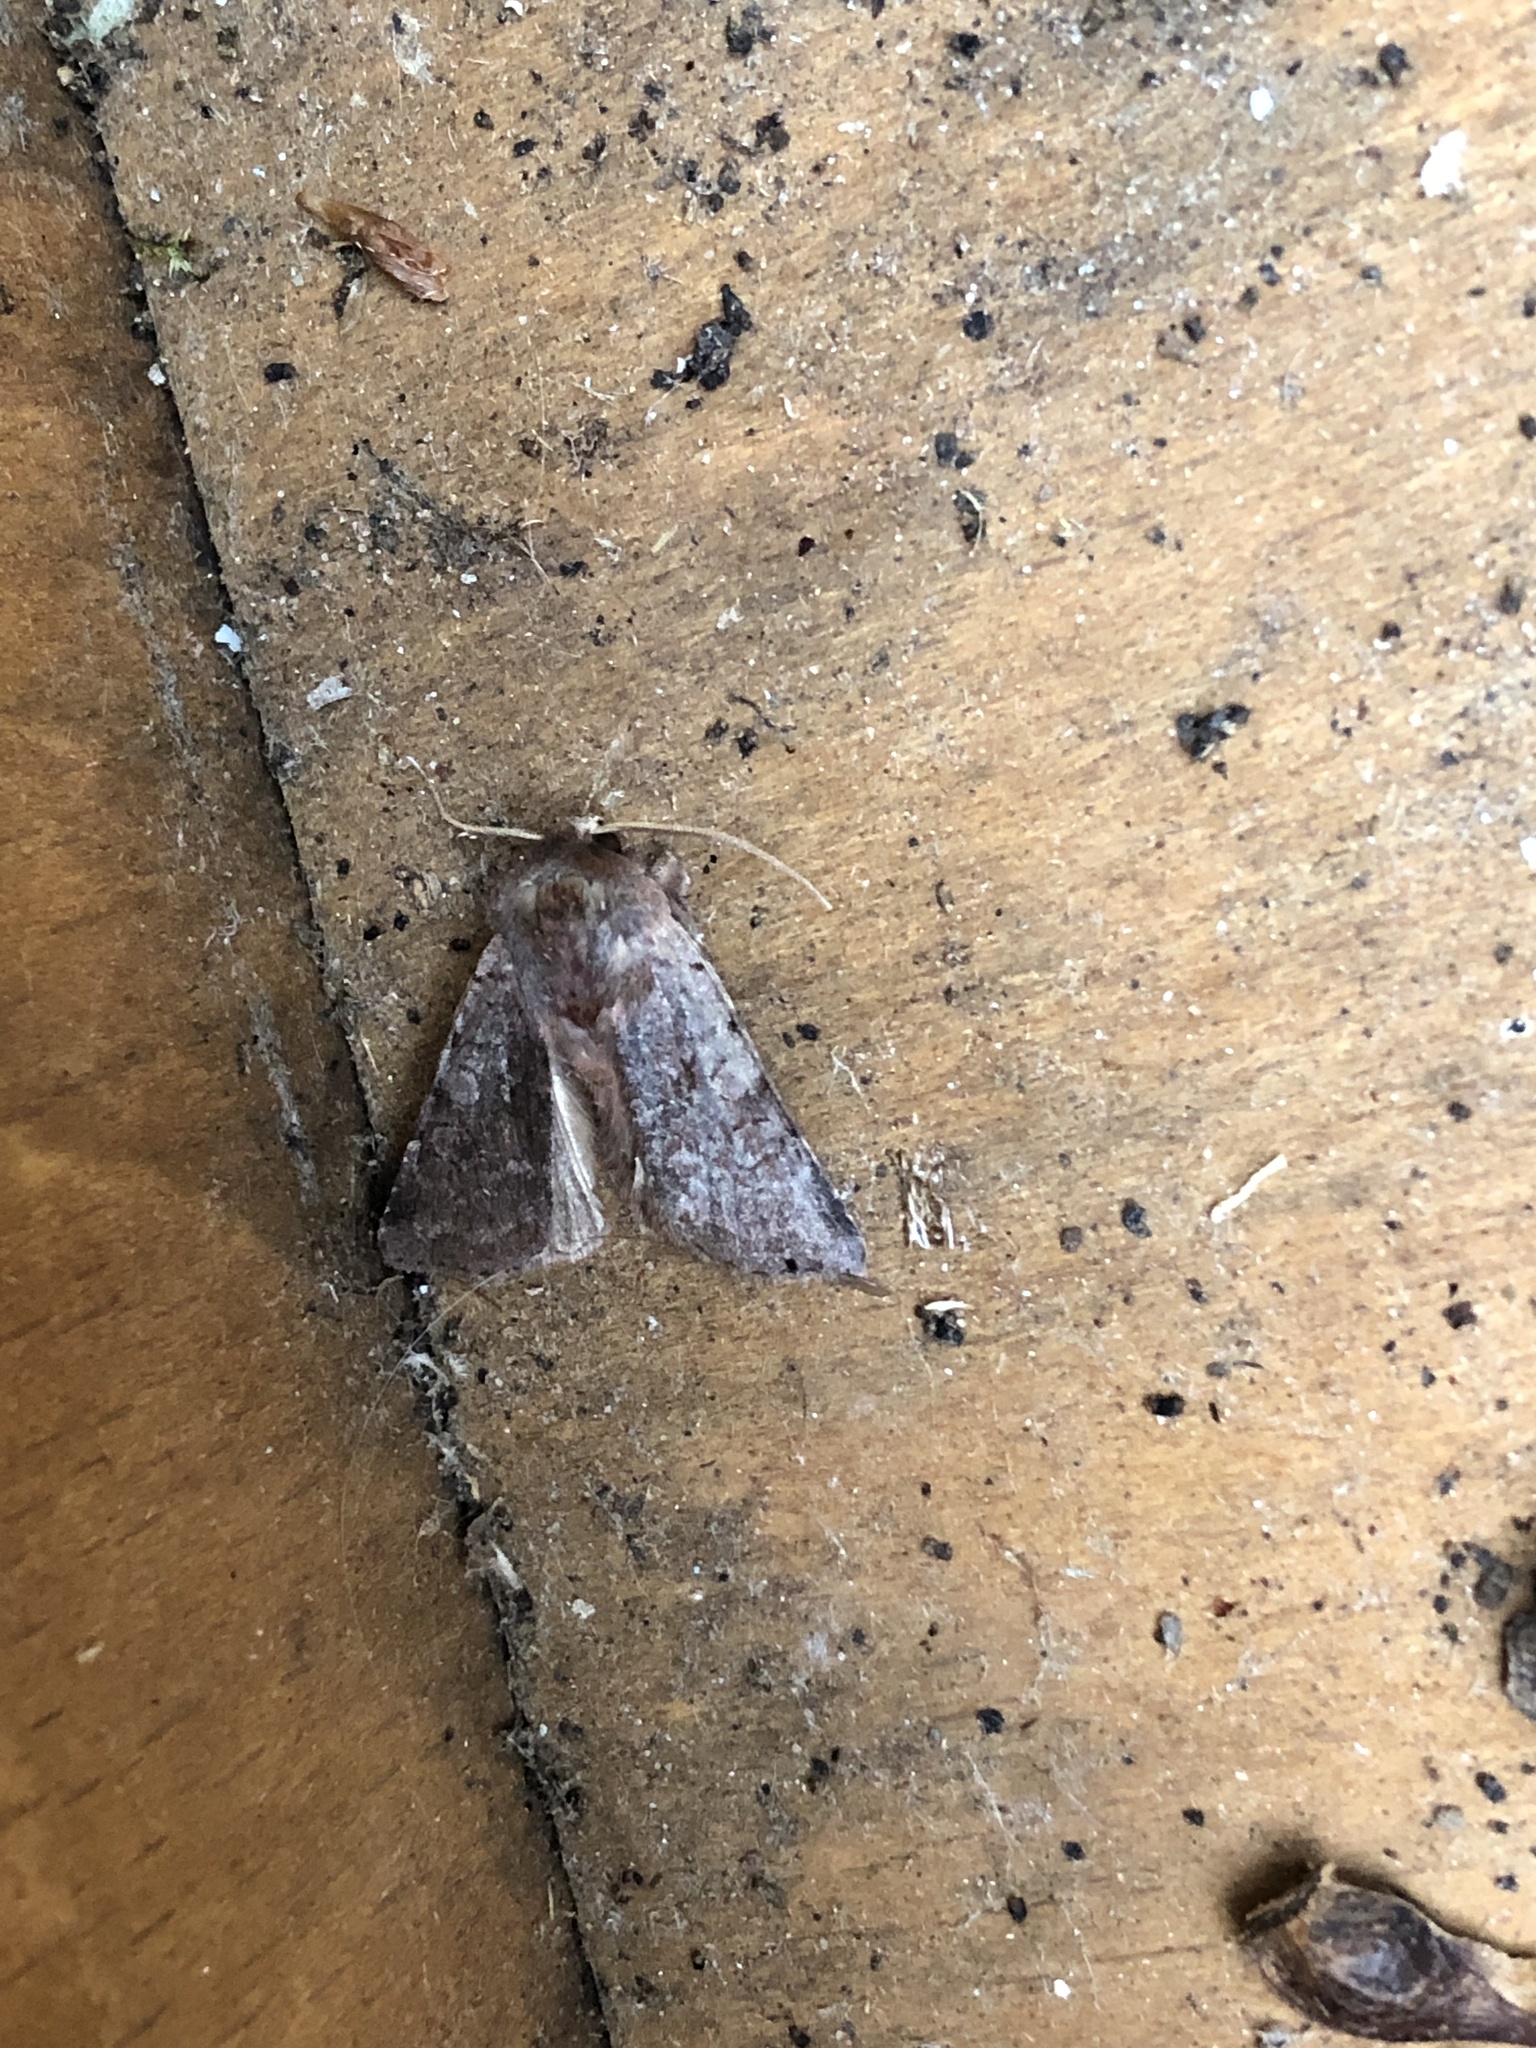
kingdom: Animalia
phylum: Arthropoda
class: Insecta
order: Lepidoptera
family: Noctuidae
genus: Cerastis
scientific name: Cerastis rubricosa
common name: Red chestnut
